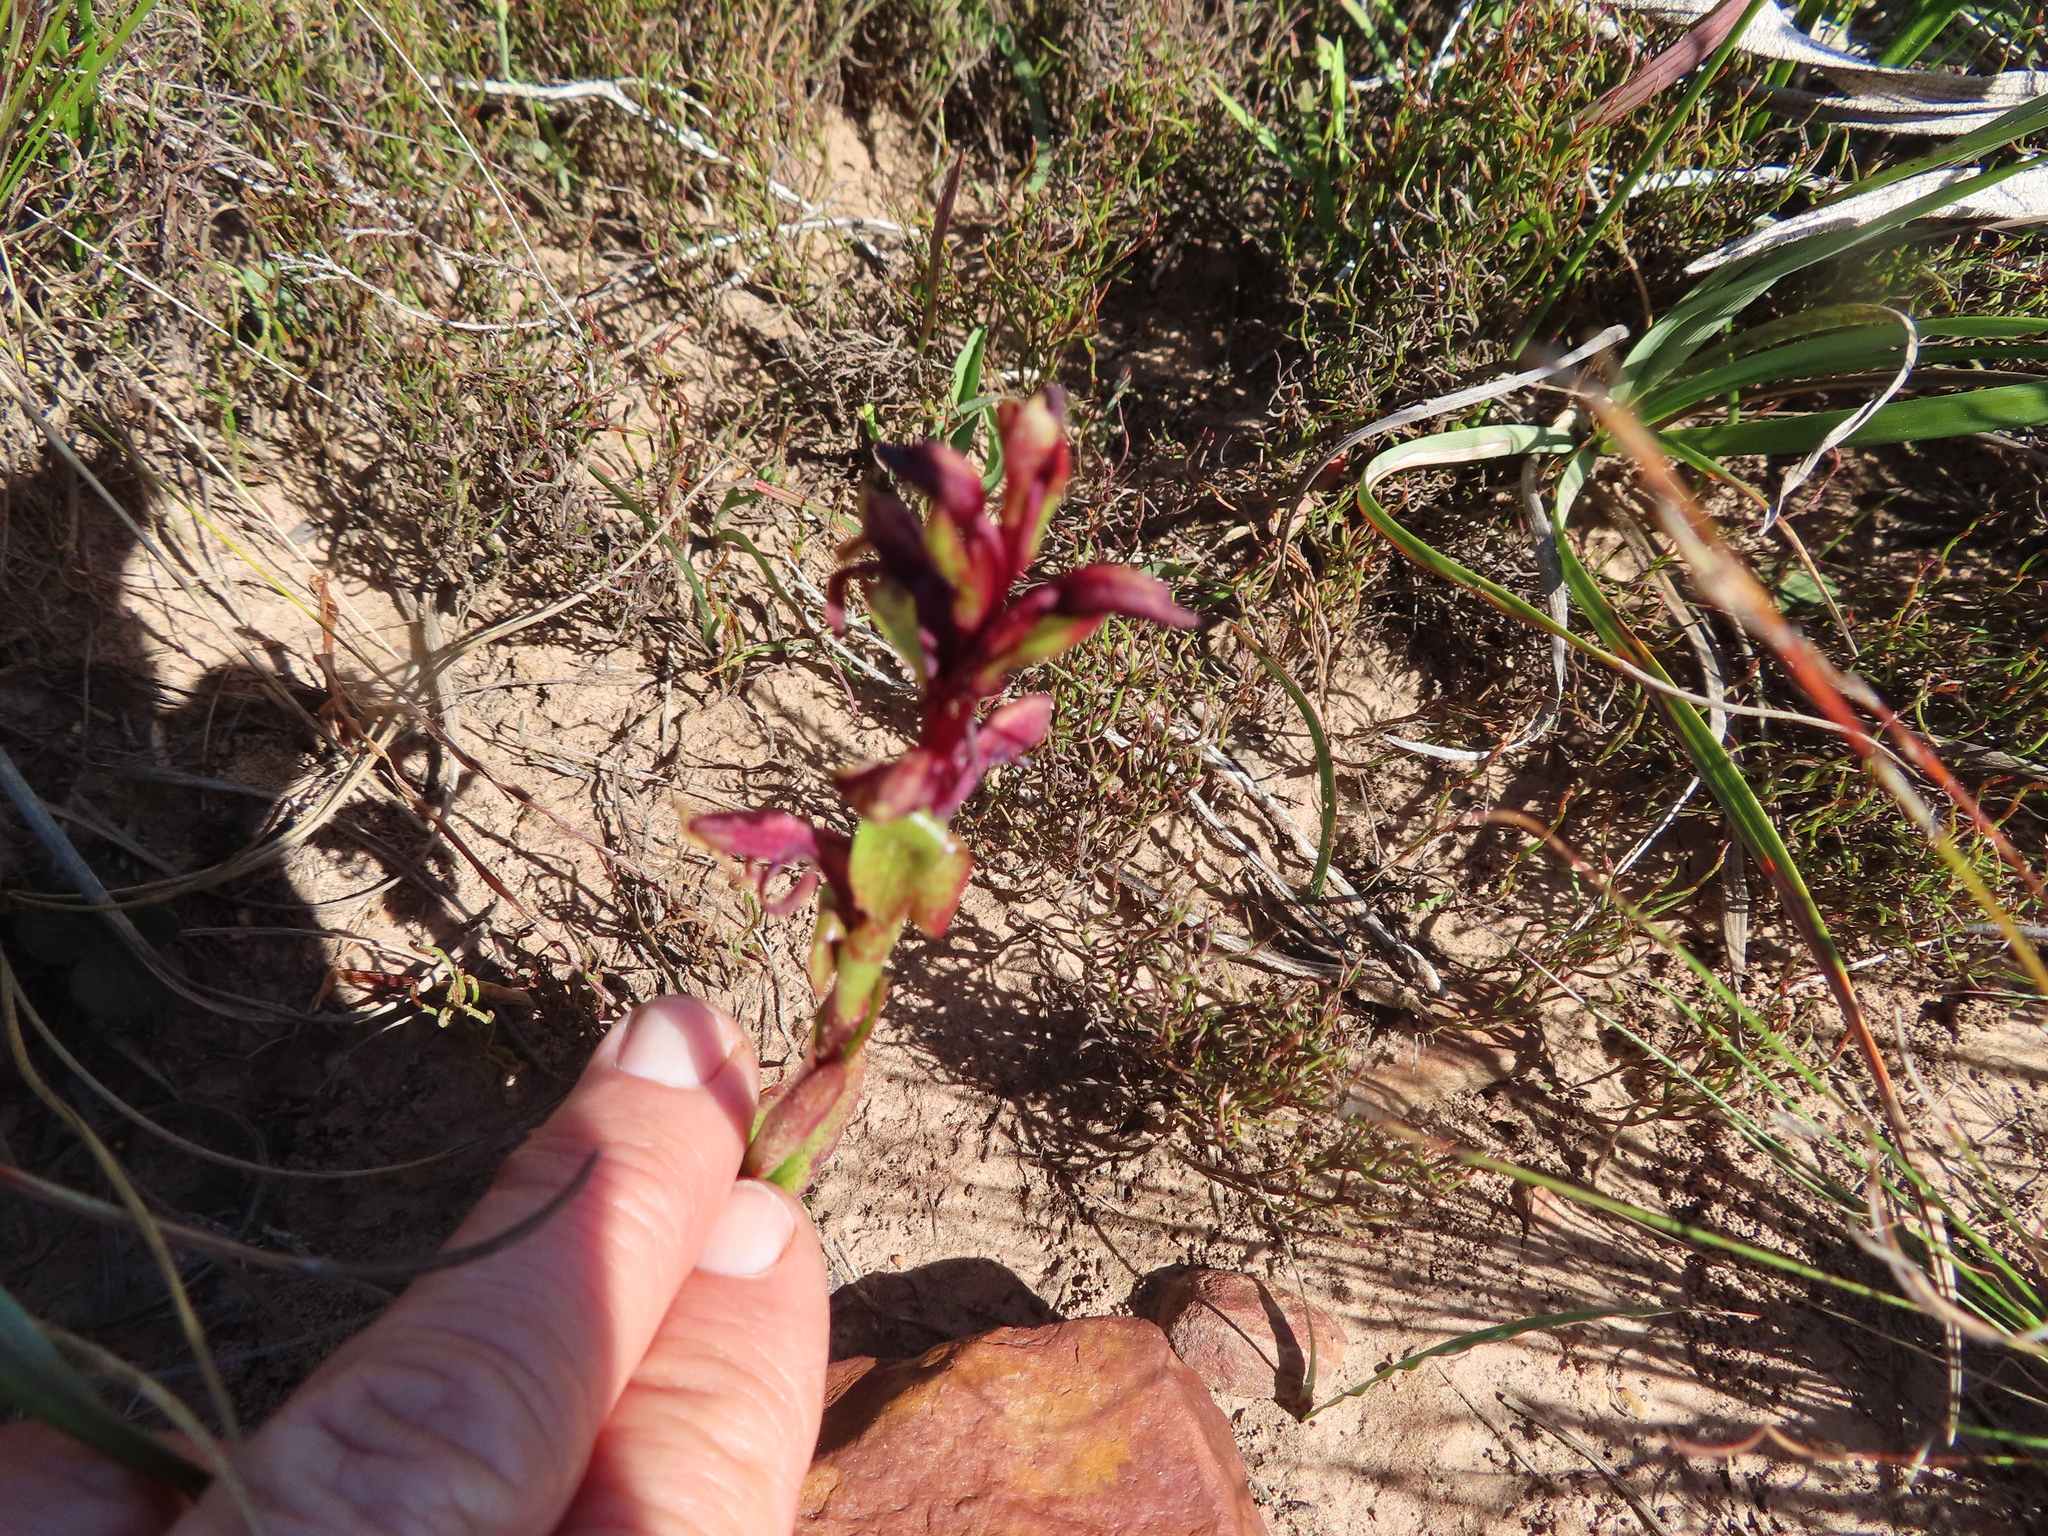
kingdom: Plantae
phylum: Tracheophyta
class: Liliopsida
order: Asparagales
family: Orchidaceae
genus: Satyrium
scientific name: Satyrium lupulinum
